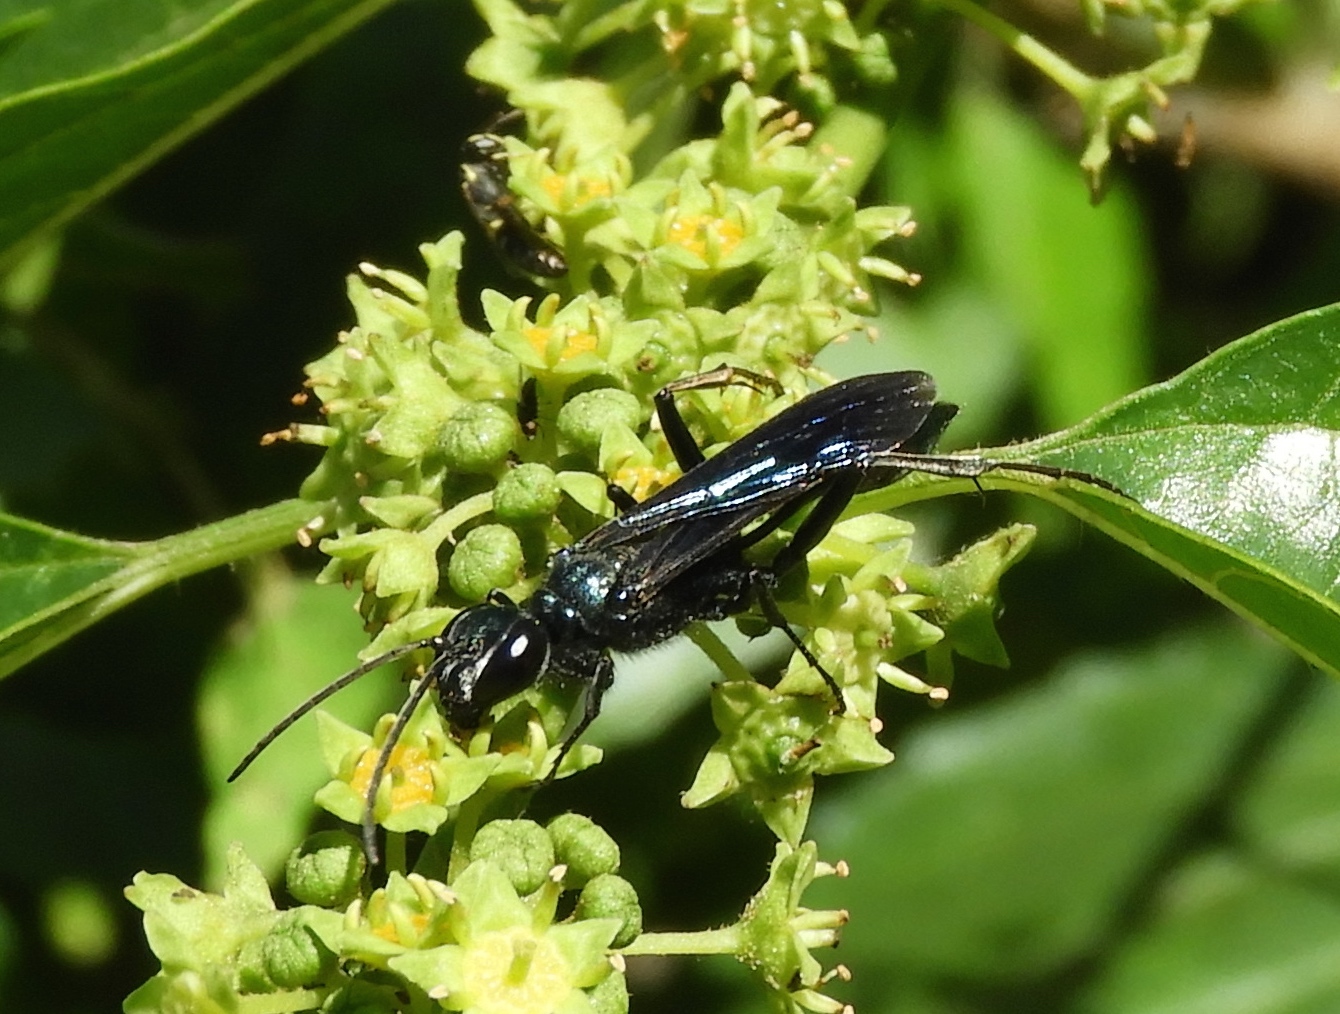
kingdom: Animalia
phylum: Arthropoda
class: Insecta
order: Hymenoptera
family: Sphecidae
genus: Chalybion
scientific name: Chalybion californicum
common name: Mud dauber
